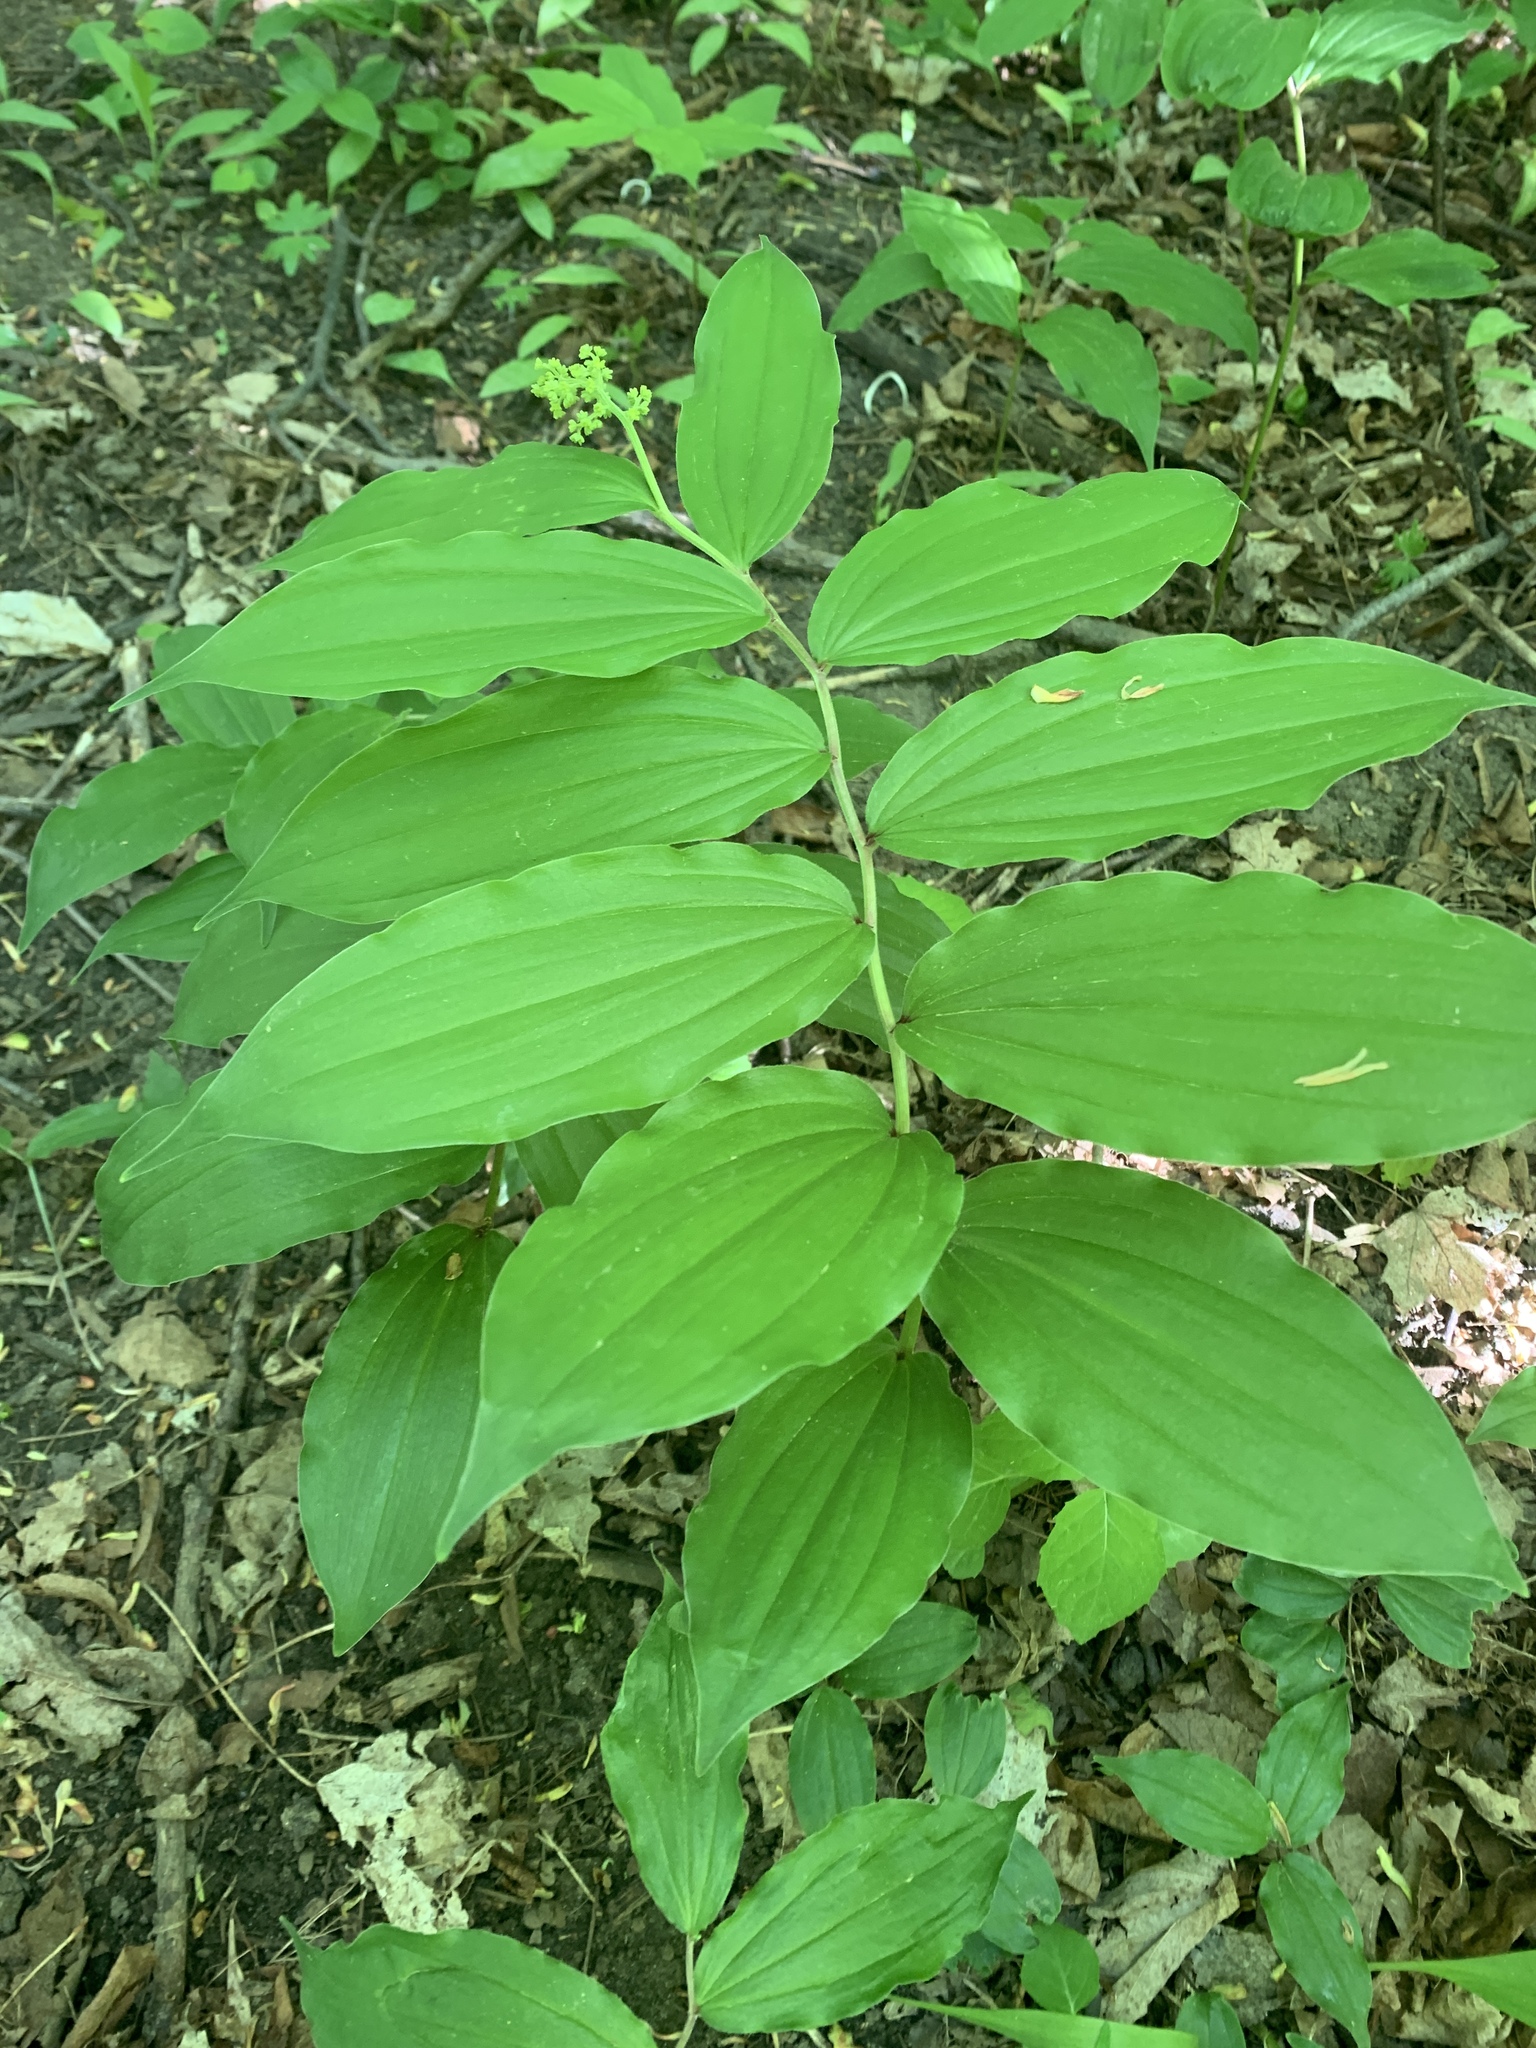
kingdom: Plantae
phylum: Tracheophyta
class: Liliopsida
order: Asparagales
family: Asparagaceae
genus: Maianthemum
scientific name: Maianthemum racemosum
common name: False spikenard
